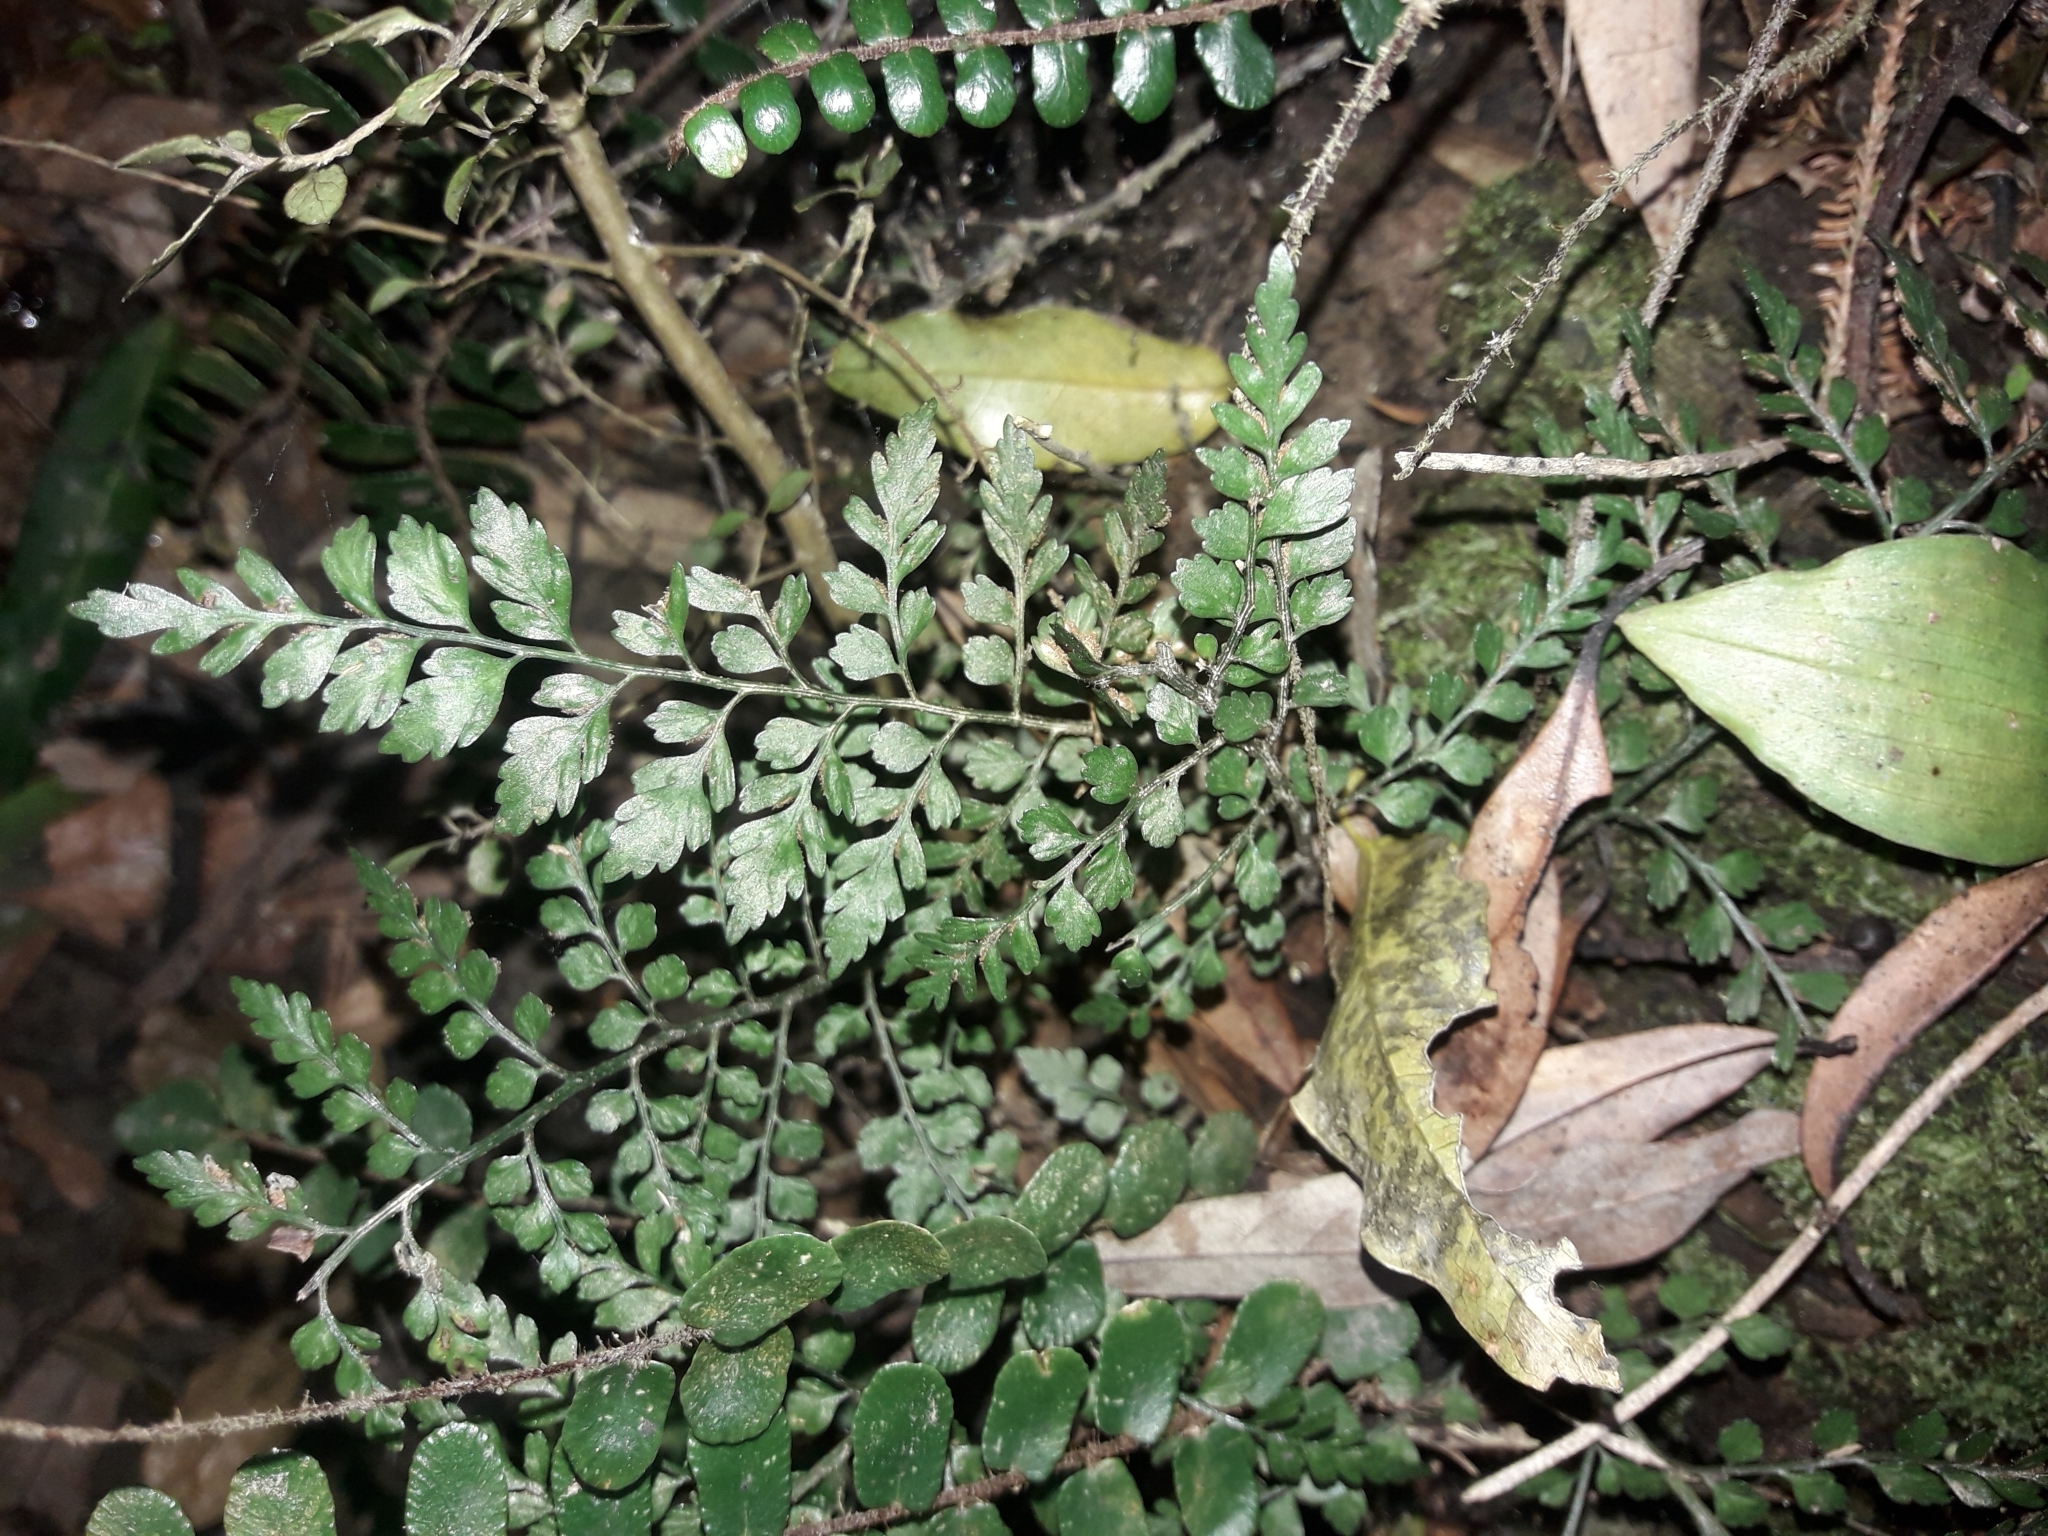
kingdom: Plantae
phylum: Tracheophyta
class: Polypodiopsida
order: Polypodiales
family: Aspleniaceae
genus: Asplenium
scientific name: Asplenium hookerianum
